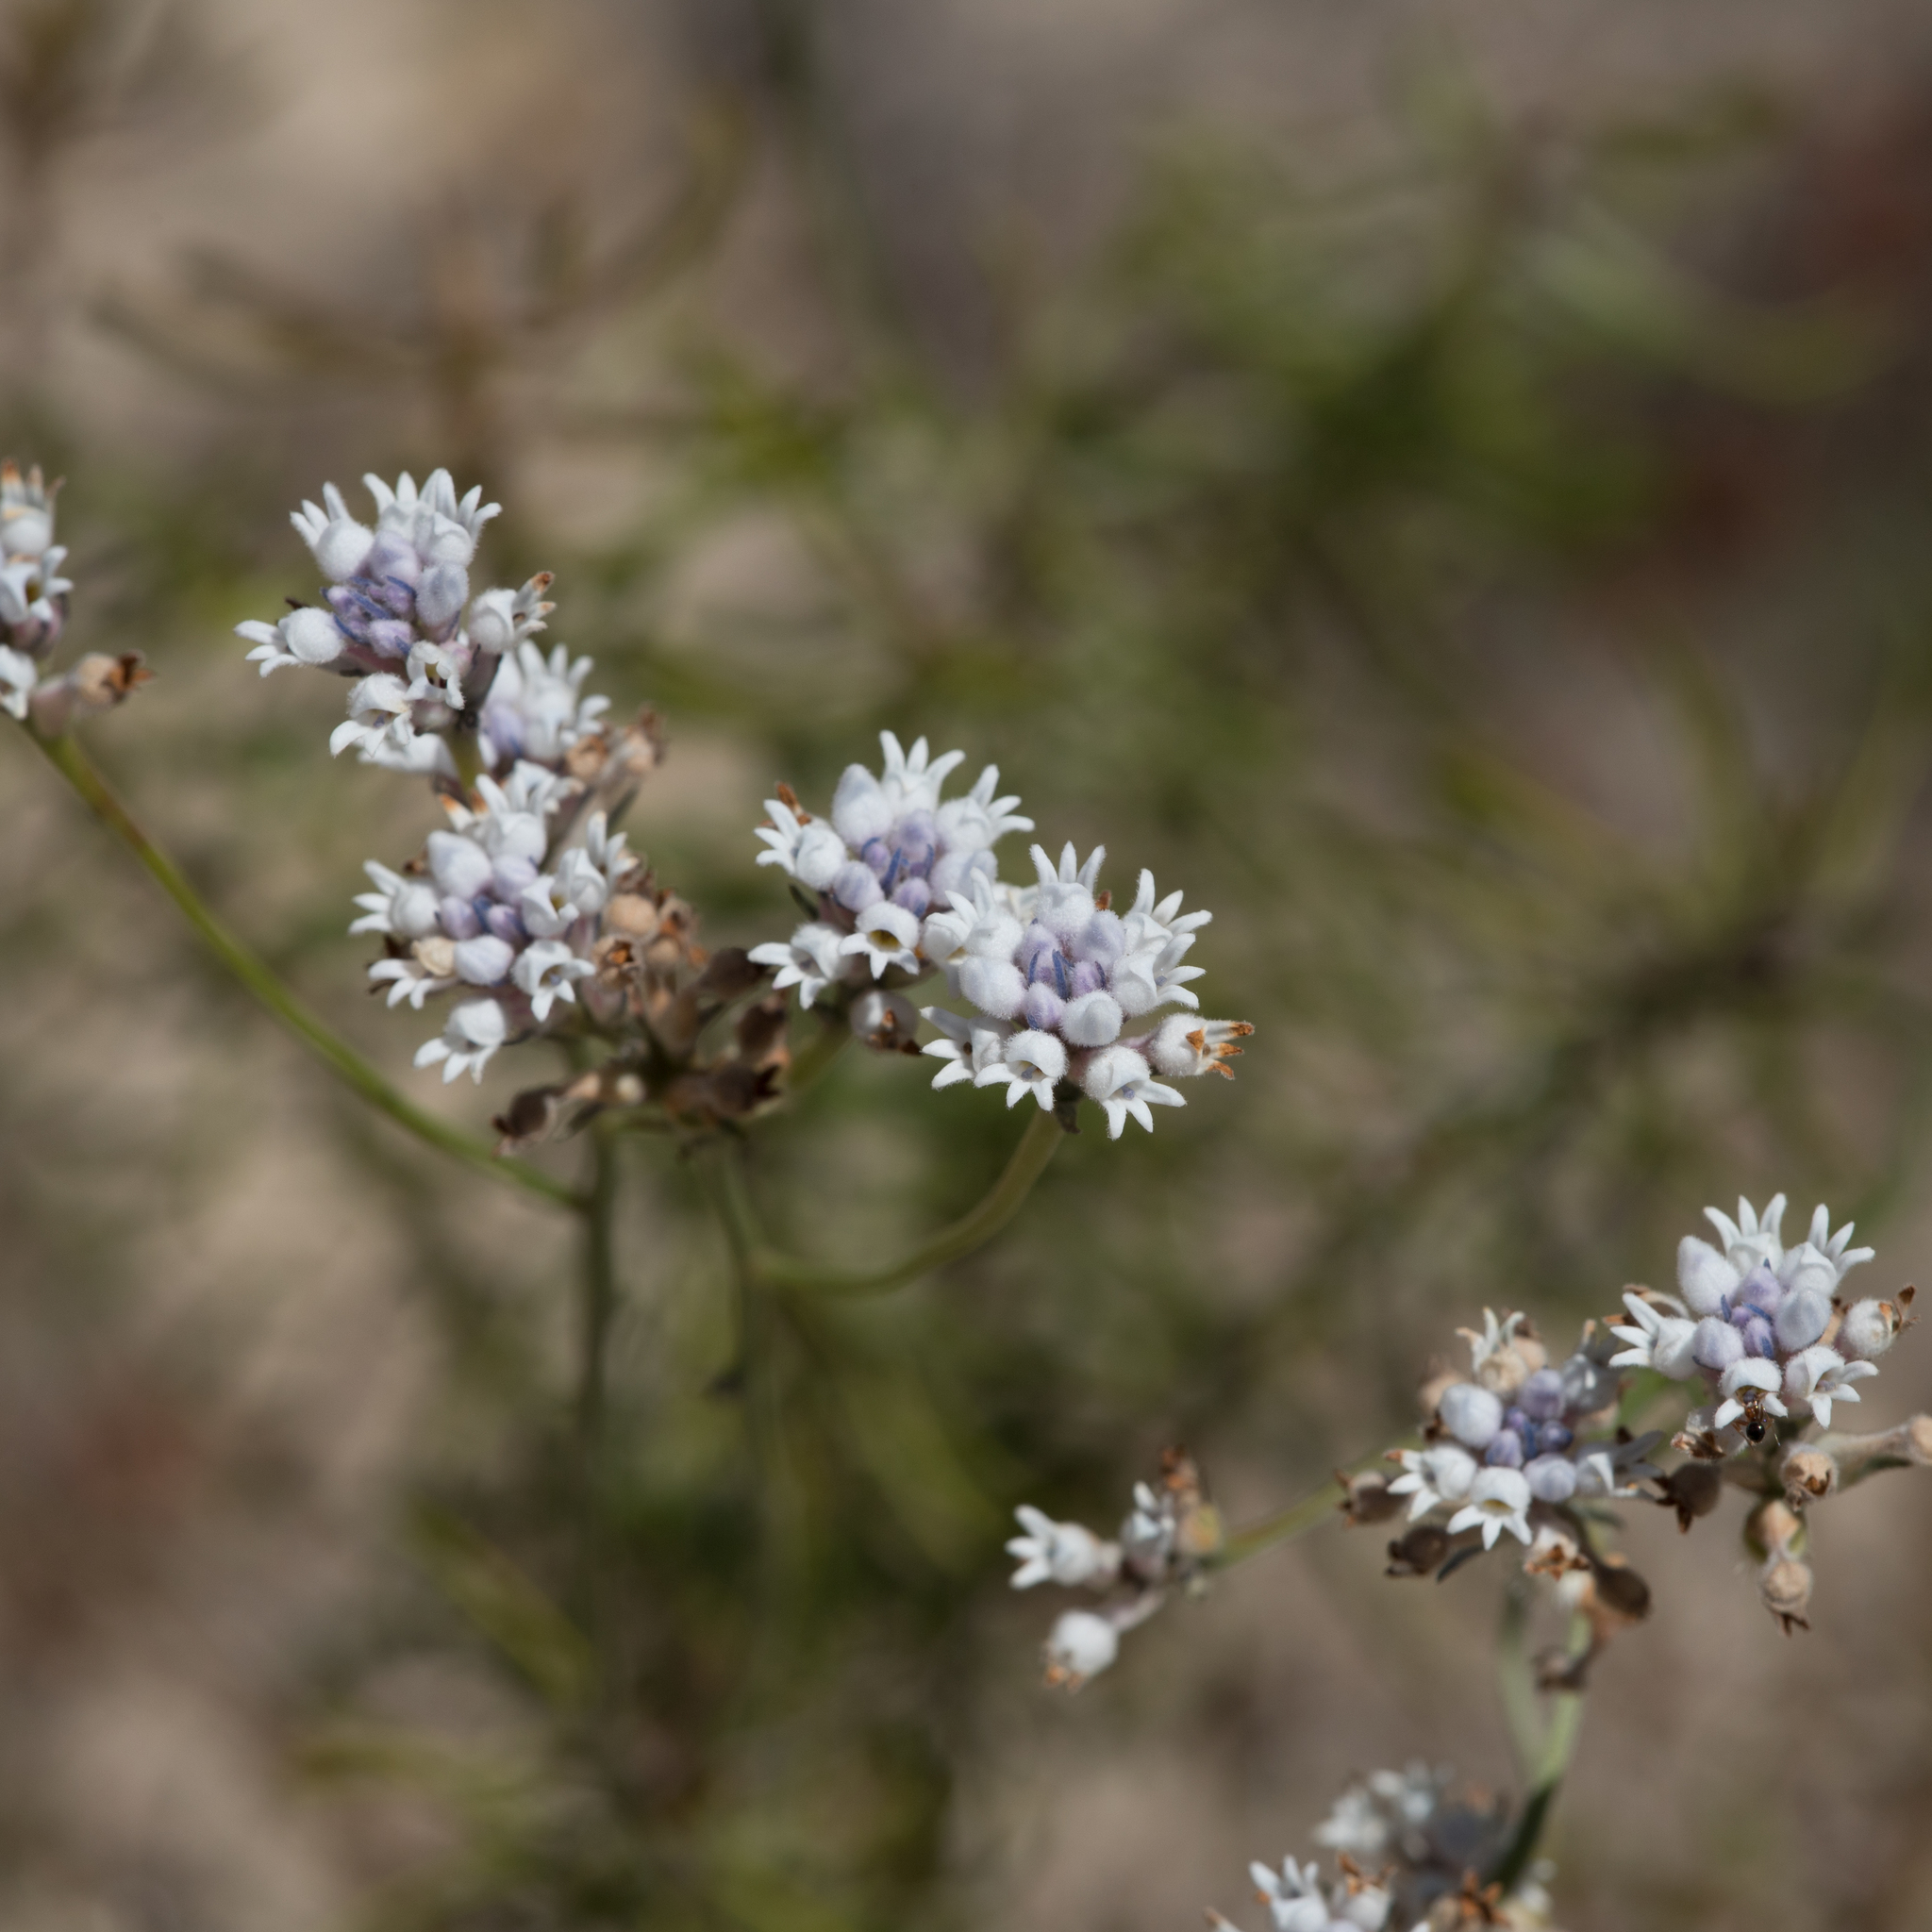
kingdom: Plantae
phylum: Tracheophyta
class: Magnoliopsida
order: Proteales
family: Proteaceae
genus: Conospermum
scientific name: Conospermum patens
